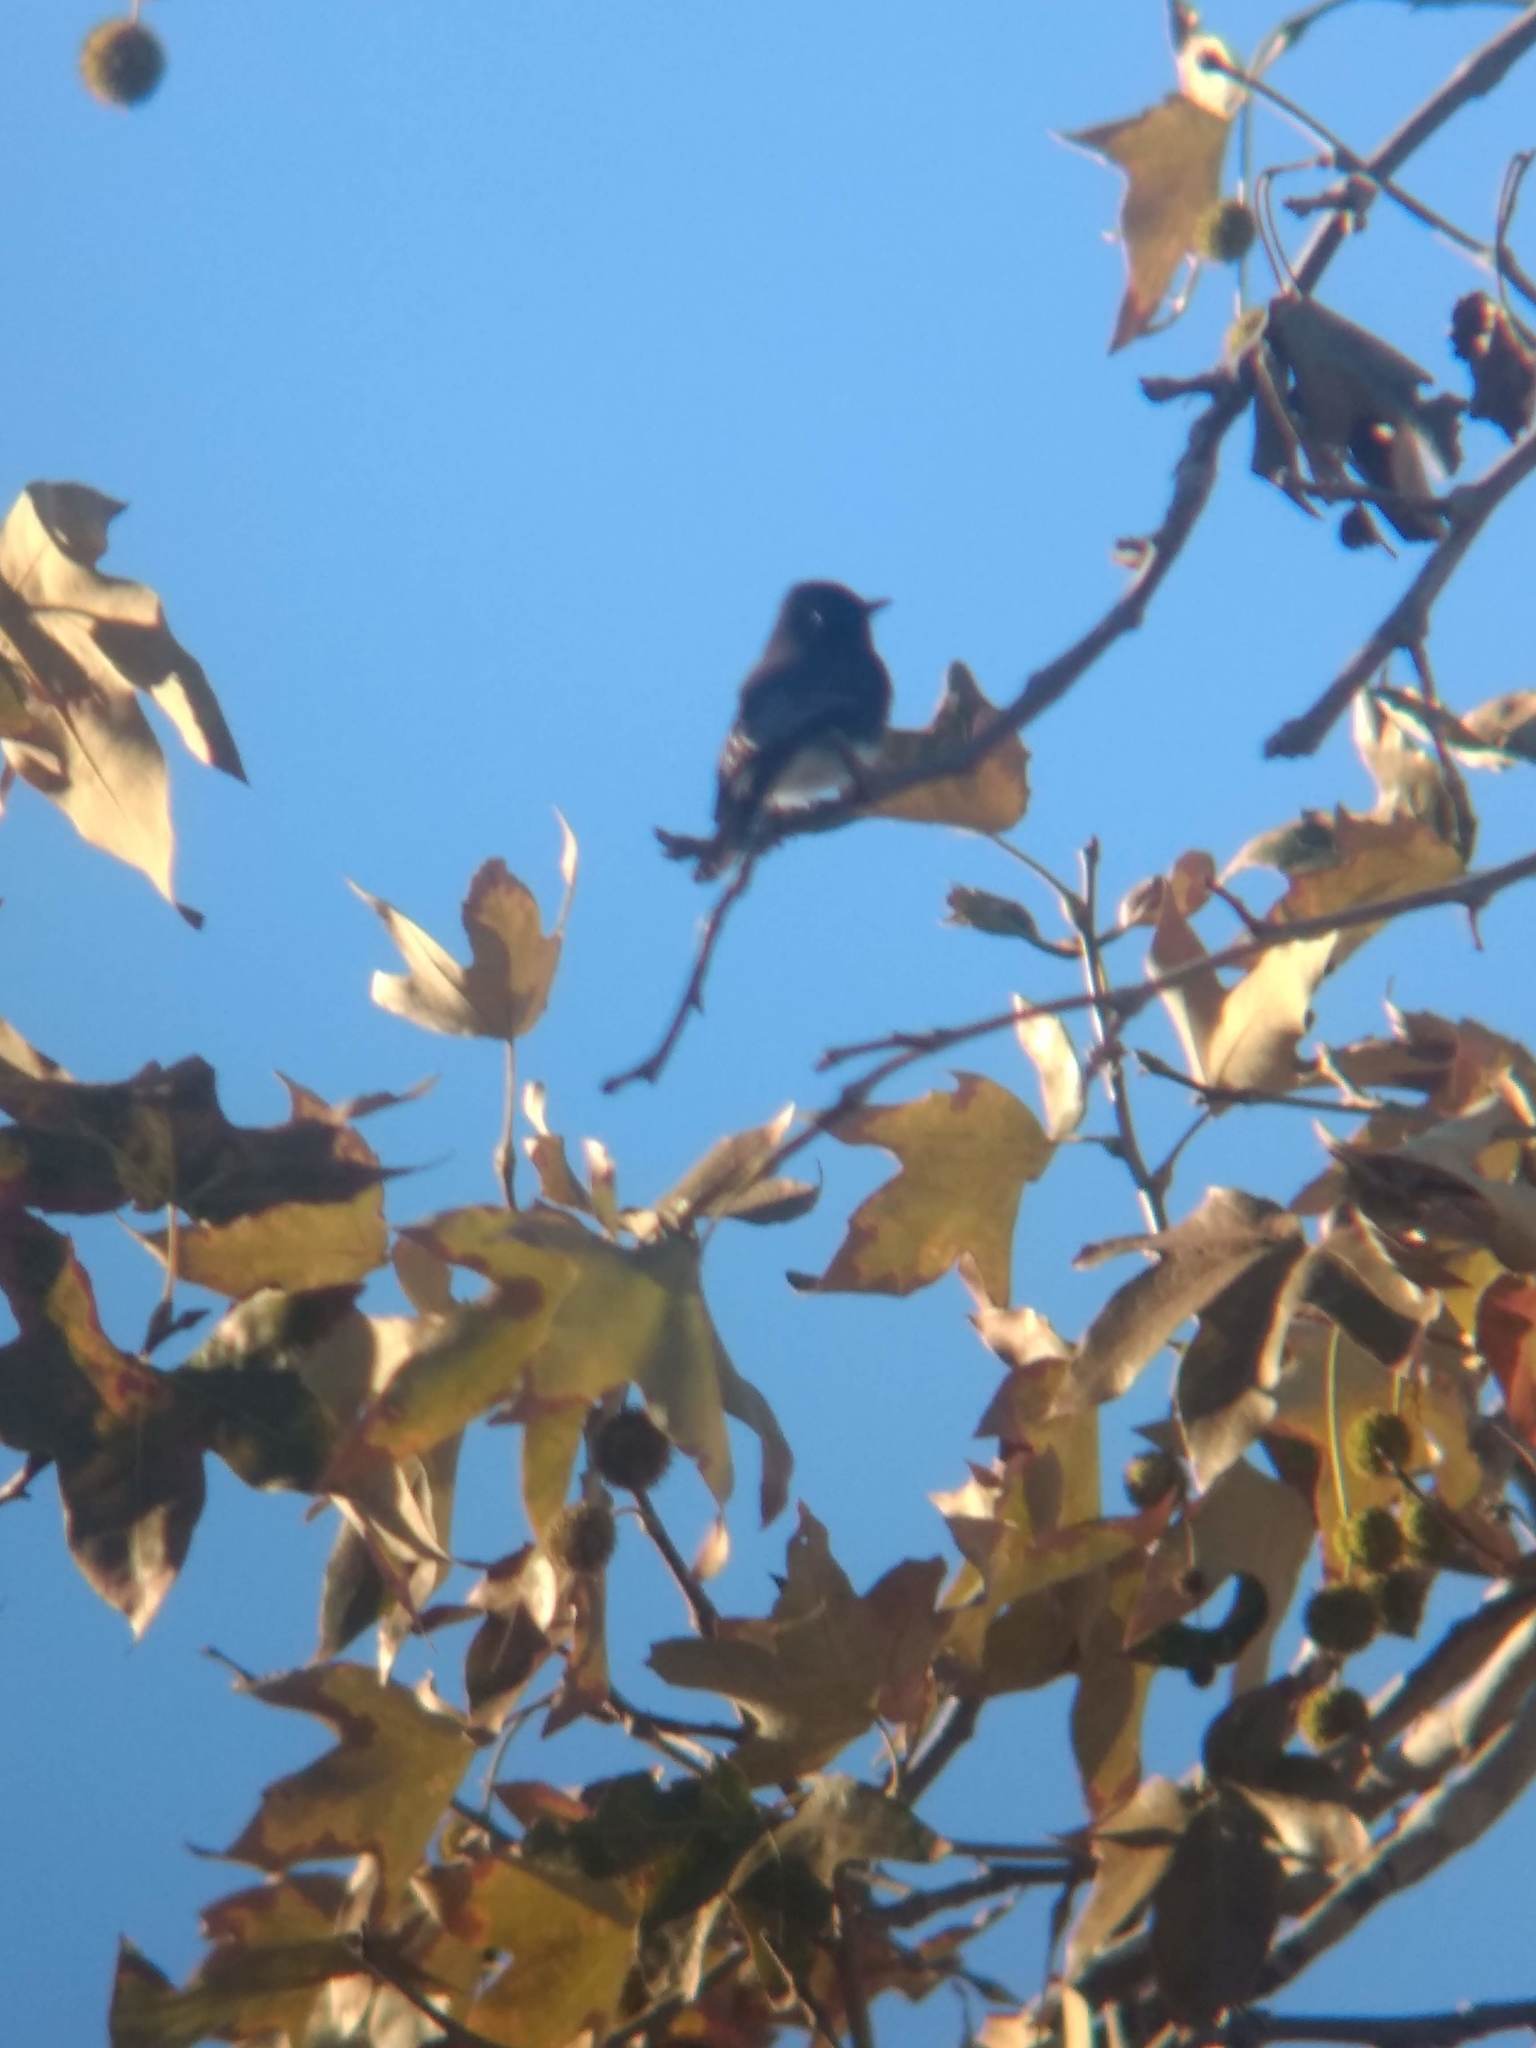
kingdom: Animalia
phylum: Chordata
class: Aves
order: Passeriformes
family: Tyrannidae
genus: Sayornis
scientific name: Sayornis nigricans
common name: Black phoebe
